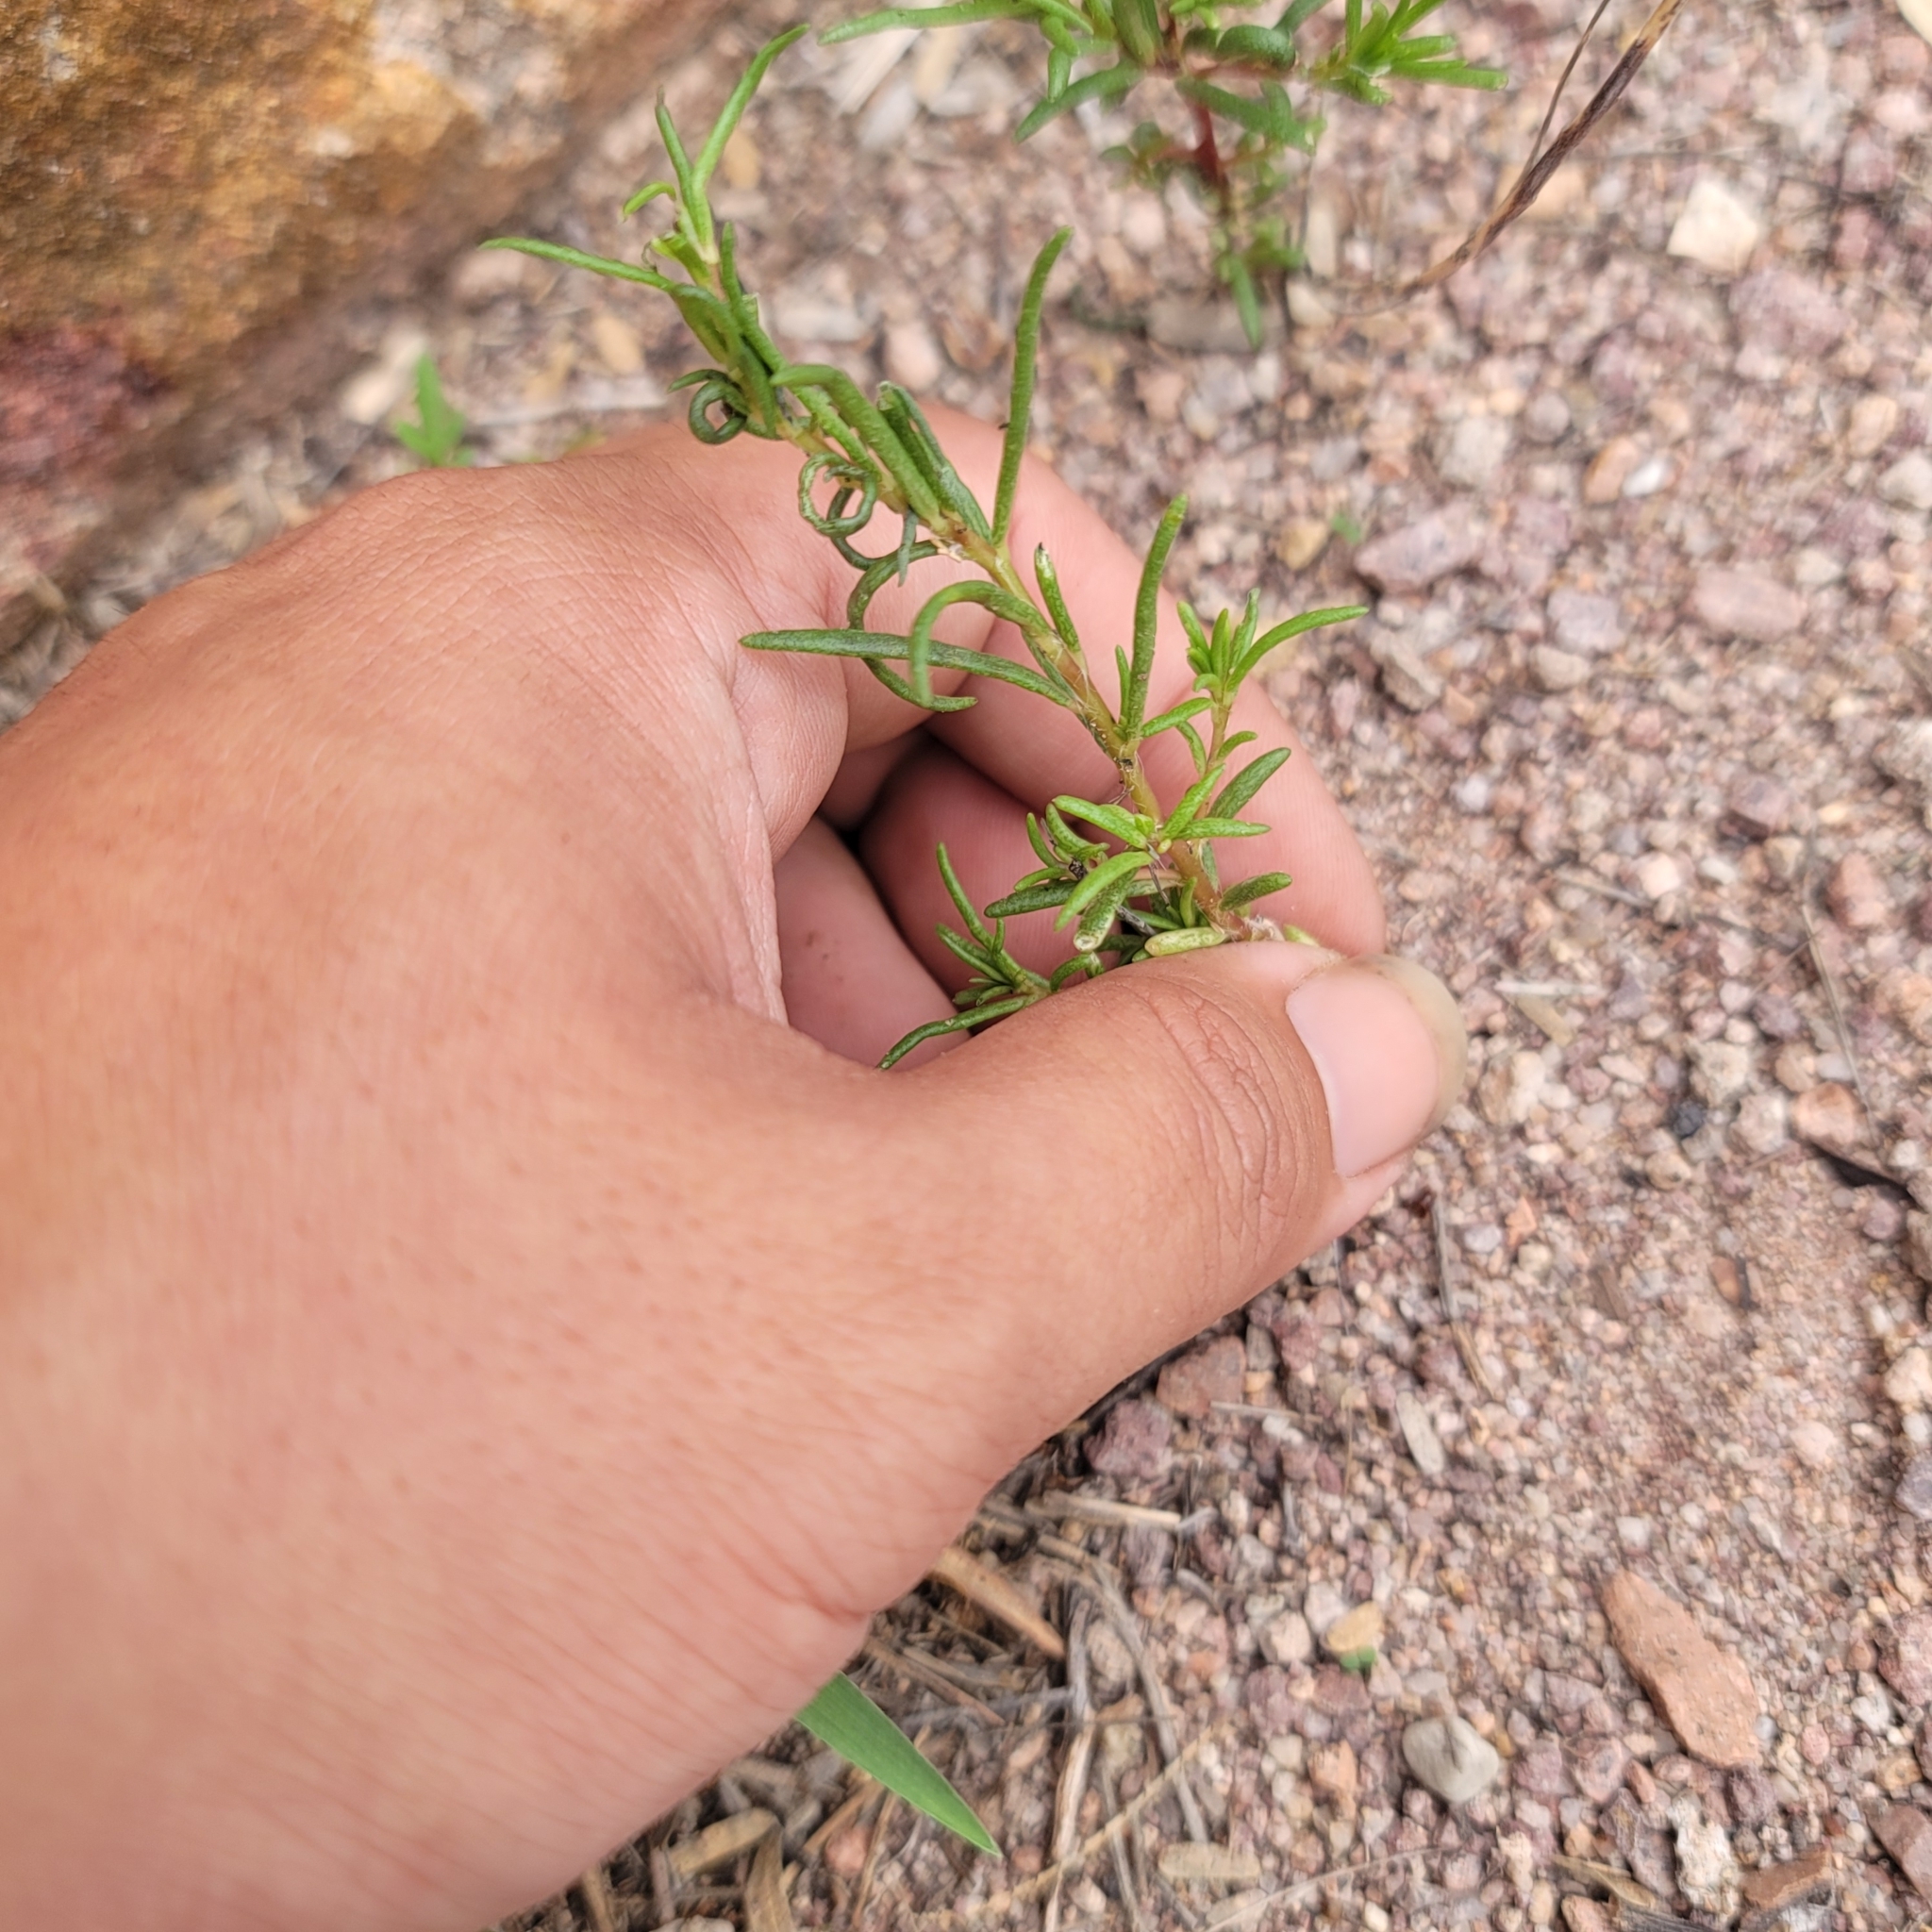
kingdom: Plantae
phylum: Tracheophyta
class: Magnoliopsida
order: Caryophyllales
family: Portulacaceae
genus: Portulaca
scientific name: Portulaca suffrutescens
